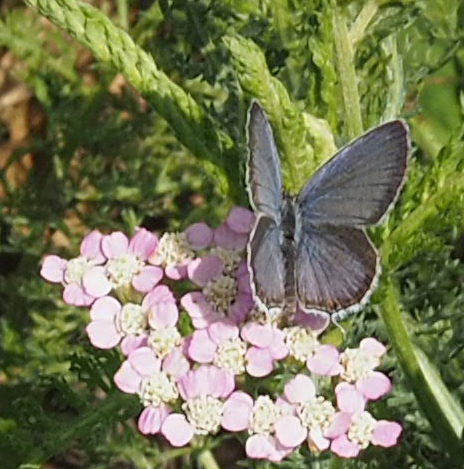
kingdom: Animalia
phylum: Arthropoda
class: Insecta
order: Lepidoptera
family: Lycaenidae
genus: Elkalyce
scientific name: Elkalyce comyntas
